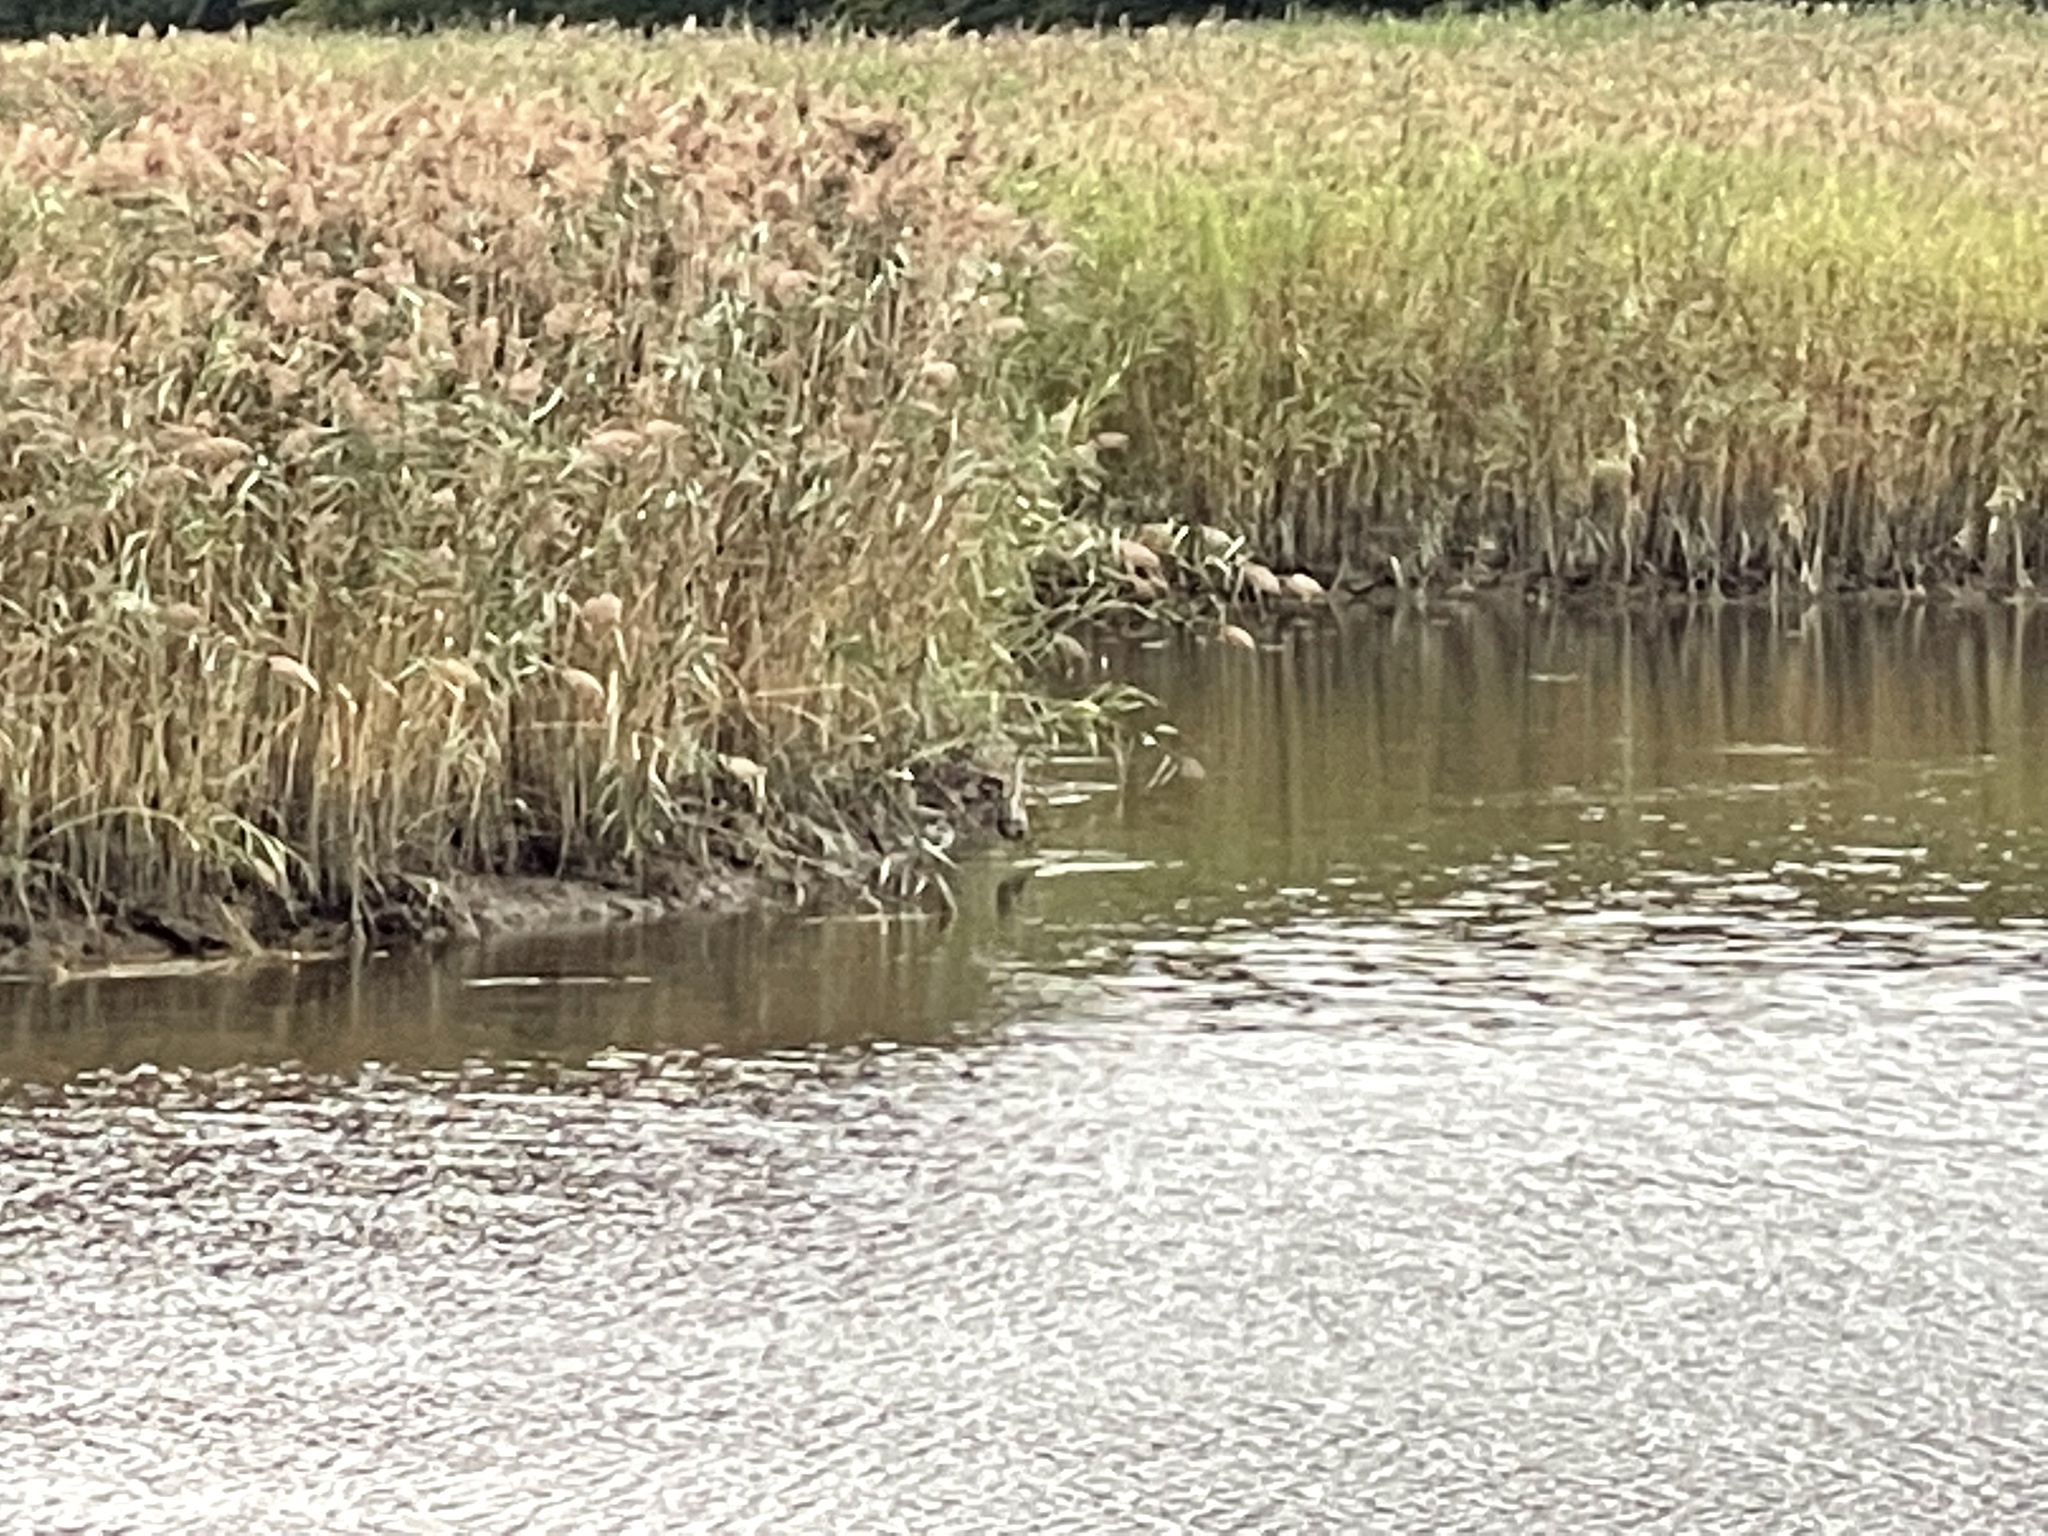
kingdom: Animalia
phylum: Chordata
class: Aves
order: Pelecaniformes
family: Ardeidae
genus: Ardea
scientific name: Ardea herodias
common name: Great blue heron
